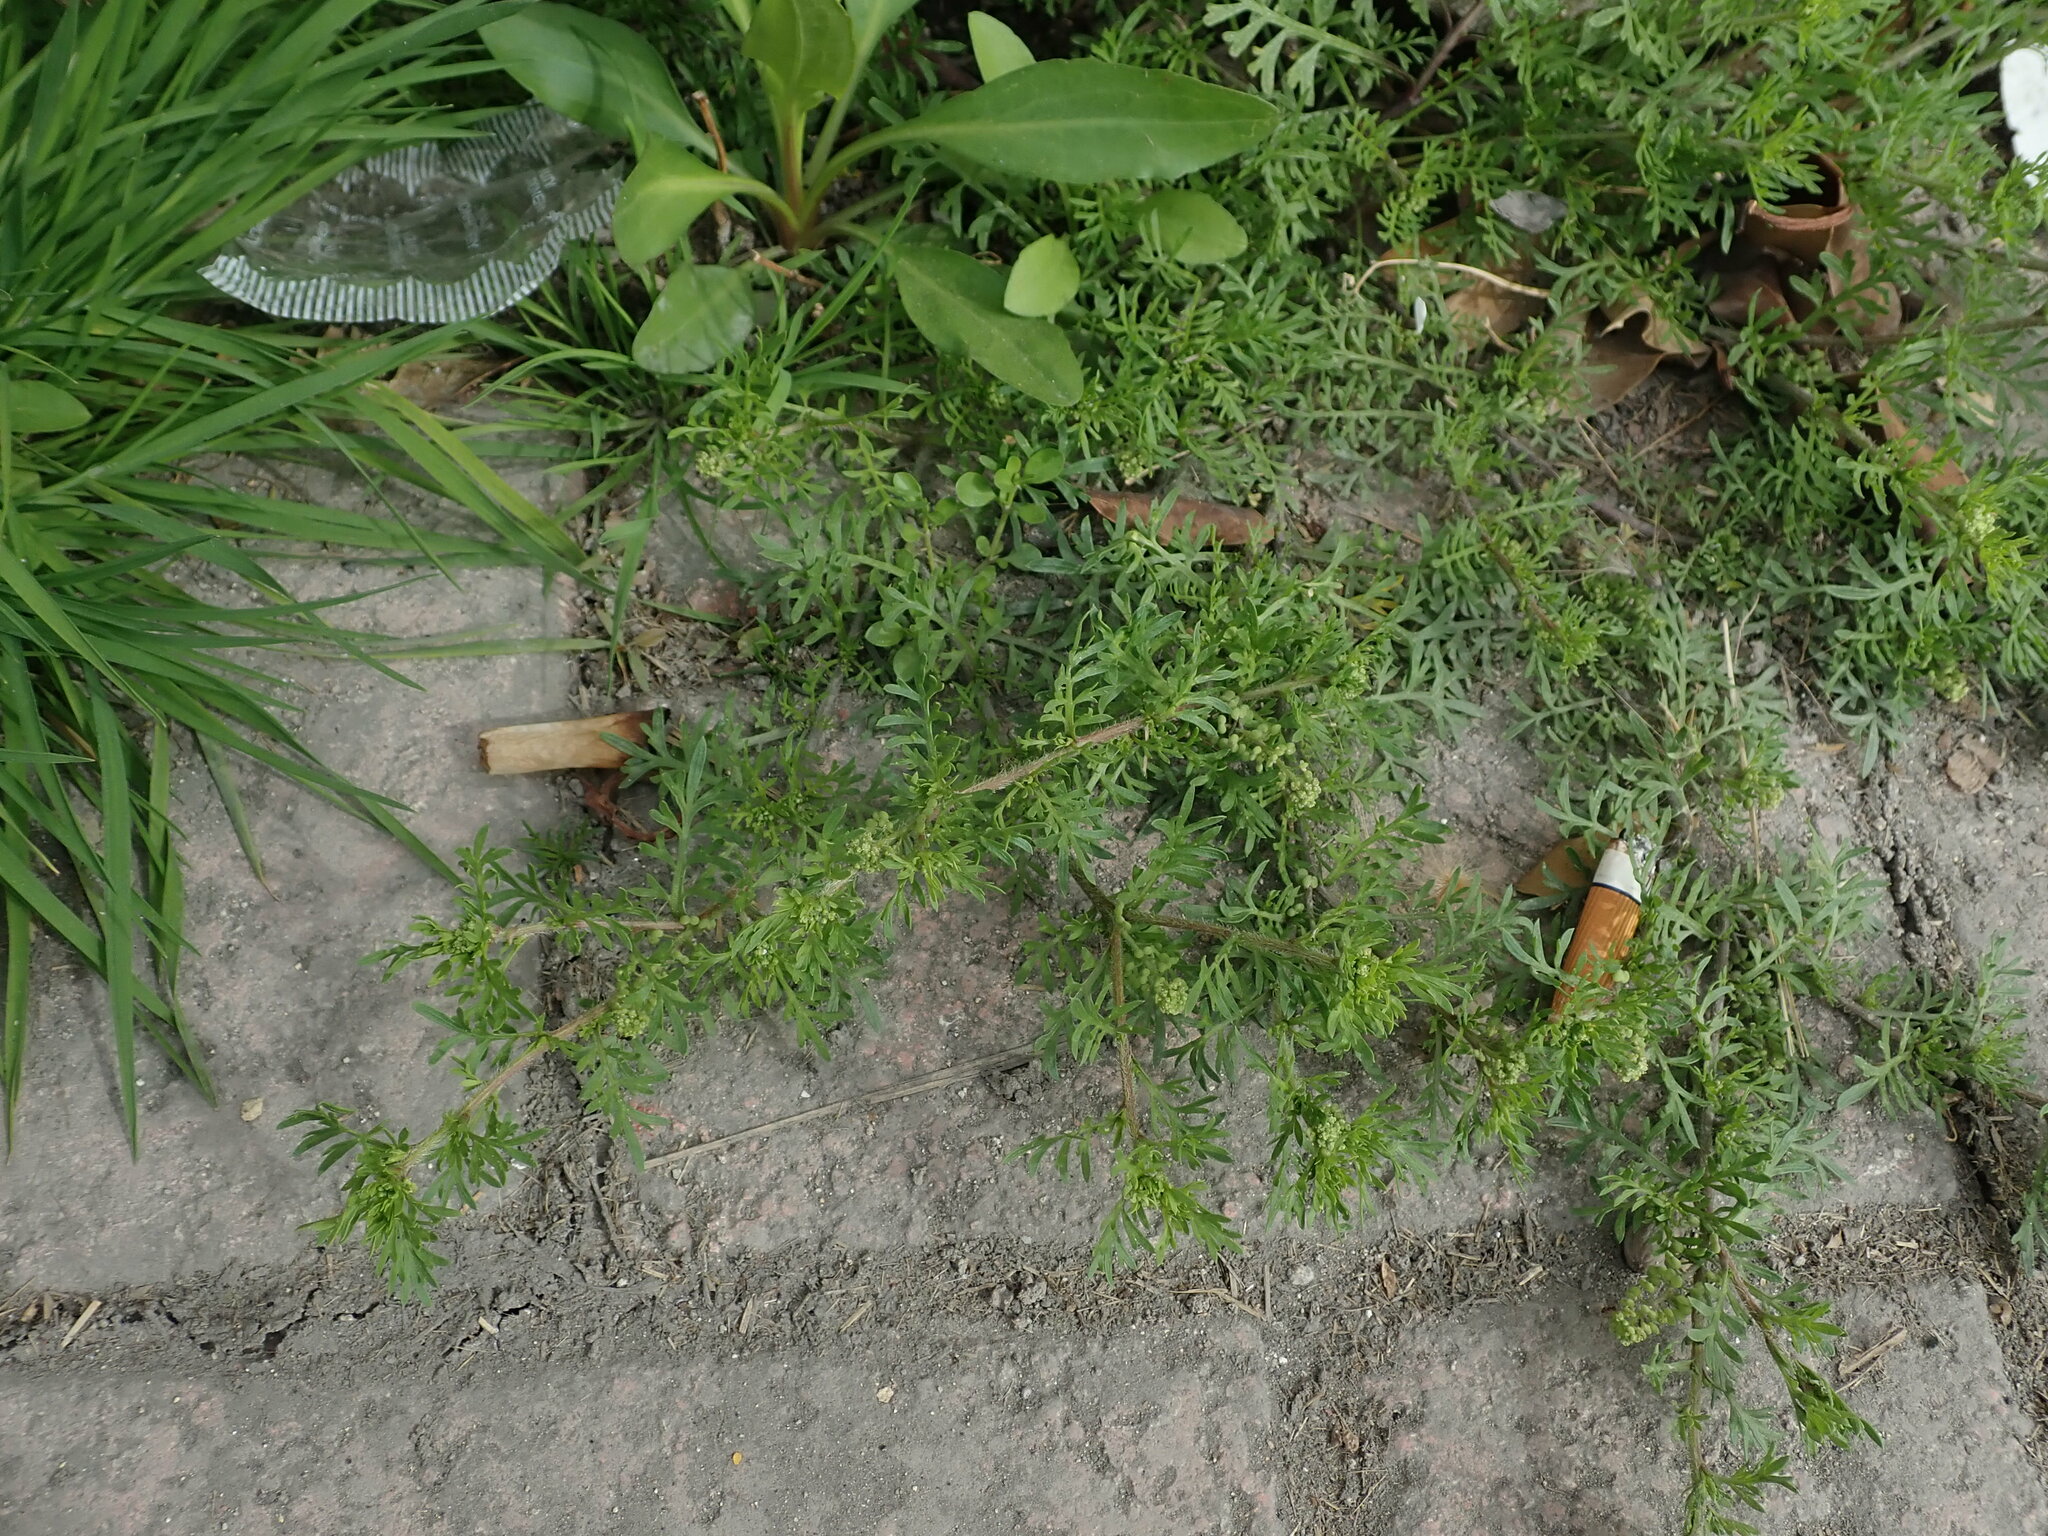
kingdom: Plantae
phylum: Tracheophyta
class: Magnoliopsida
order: Brassicales
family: Brassicaceae
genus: Lepidium
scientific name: Lepidium didymum
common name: Lesser swinecress
